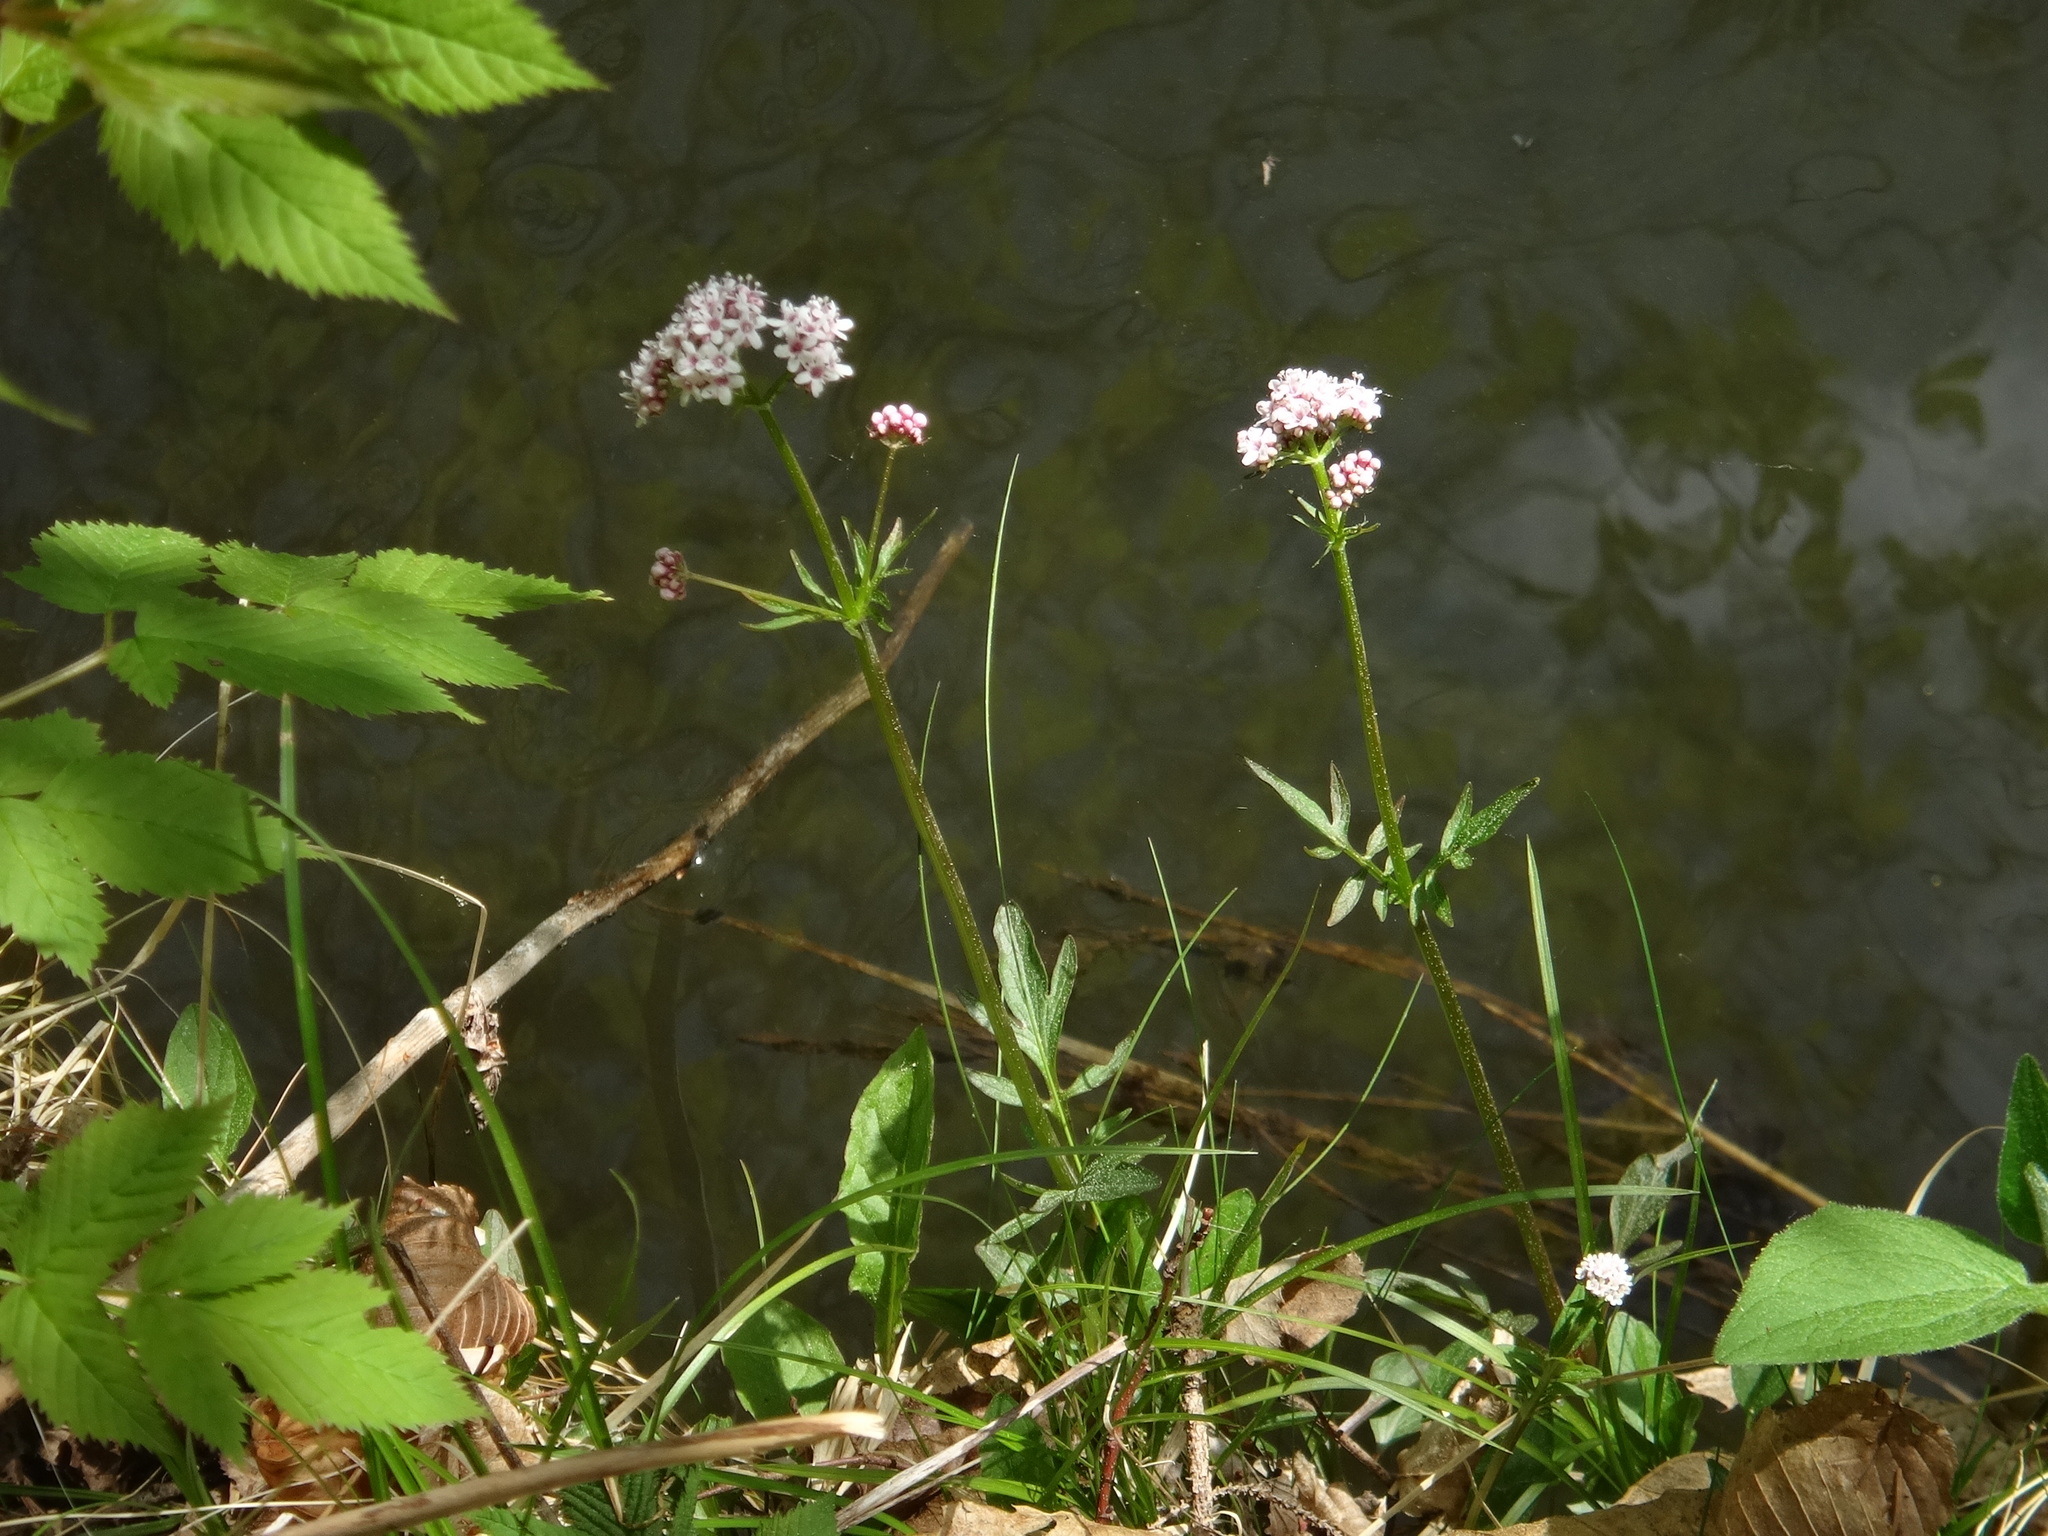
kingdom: Plantae
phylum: Tracheophyta
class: Magnoliopsida
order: Dipsacales
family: Caprifoliaceae
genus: Valeriana
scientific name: Valeriana dioica
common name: Marsh valerian
